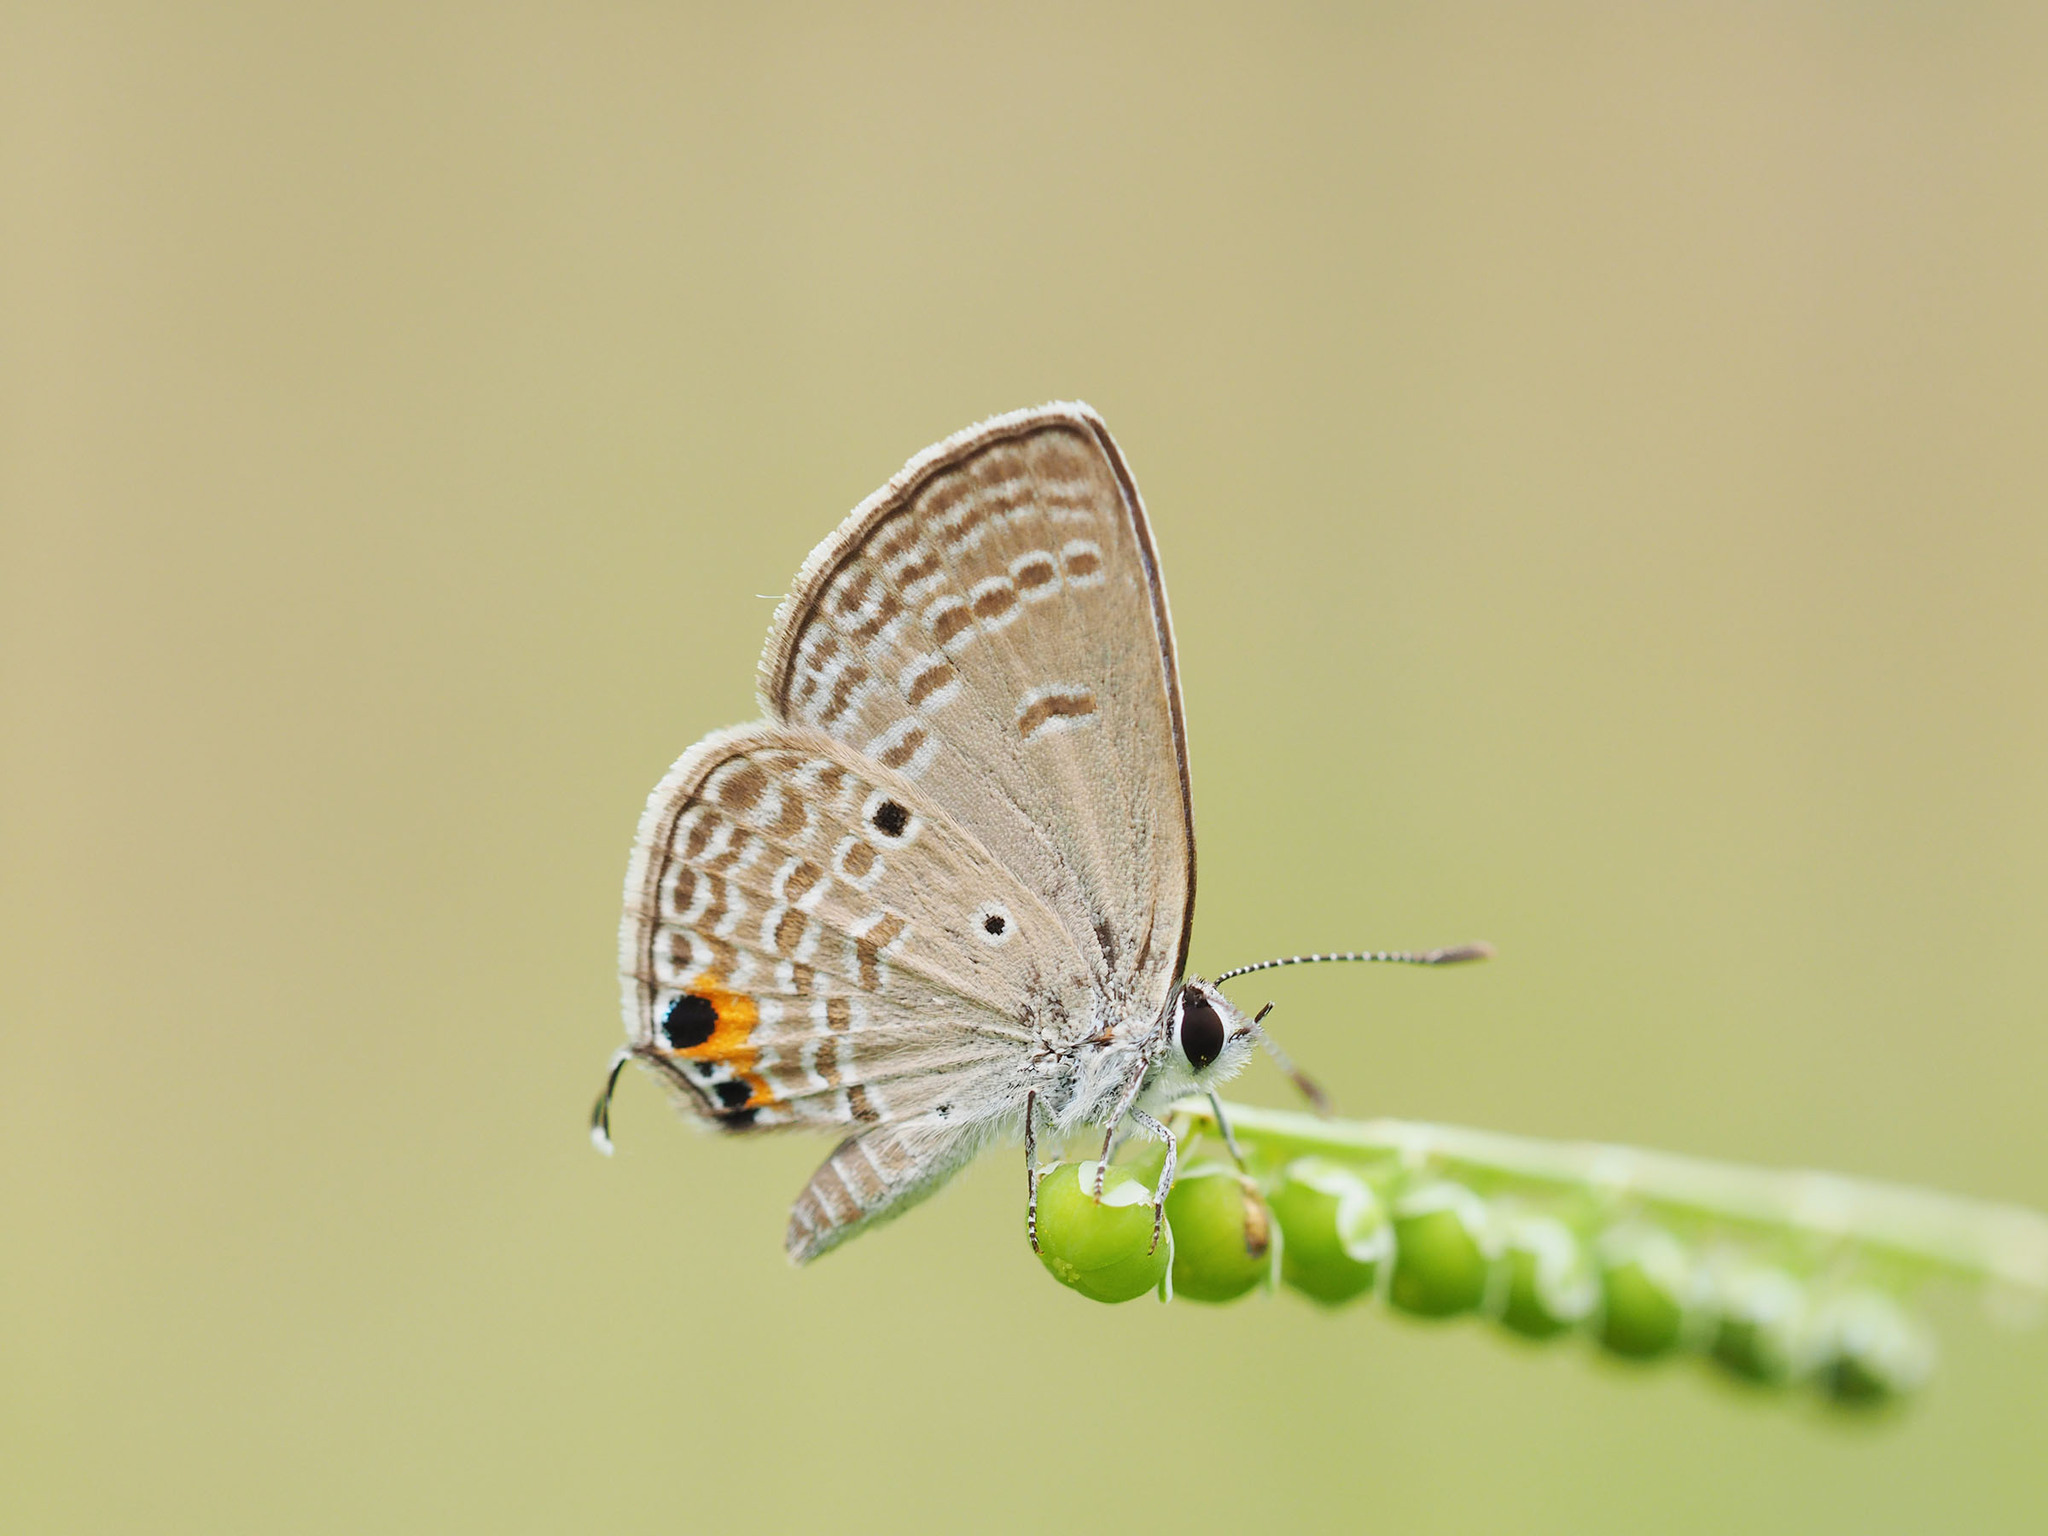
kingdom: Animalia
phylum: Arthropoda
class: Insecta
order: Lepidoptera
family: Lycaenidae
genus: Luthrodes
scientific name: Luthrodes pandava
